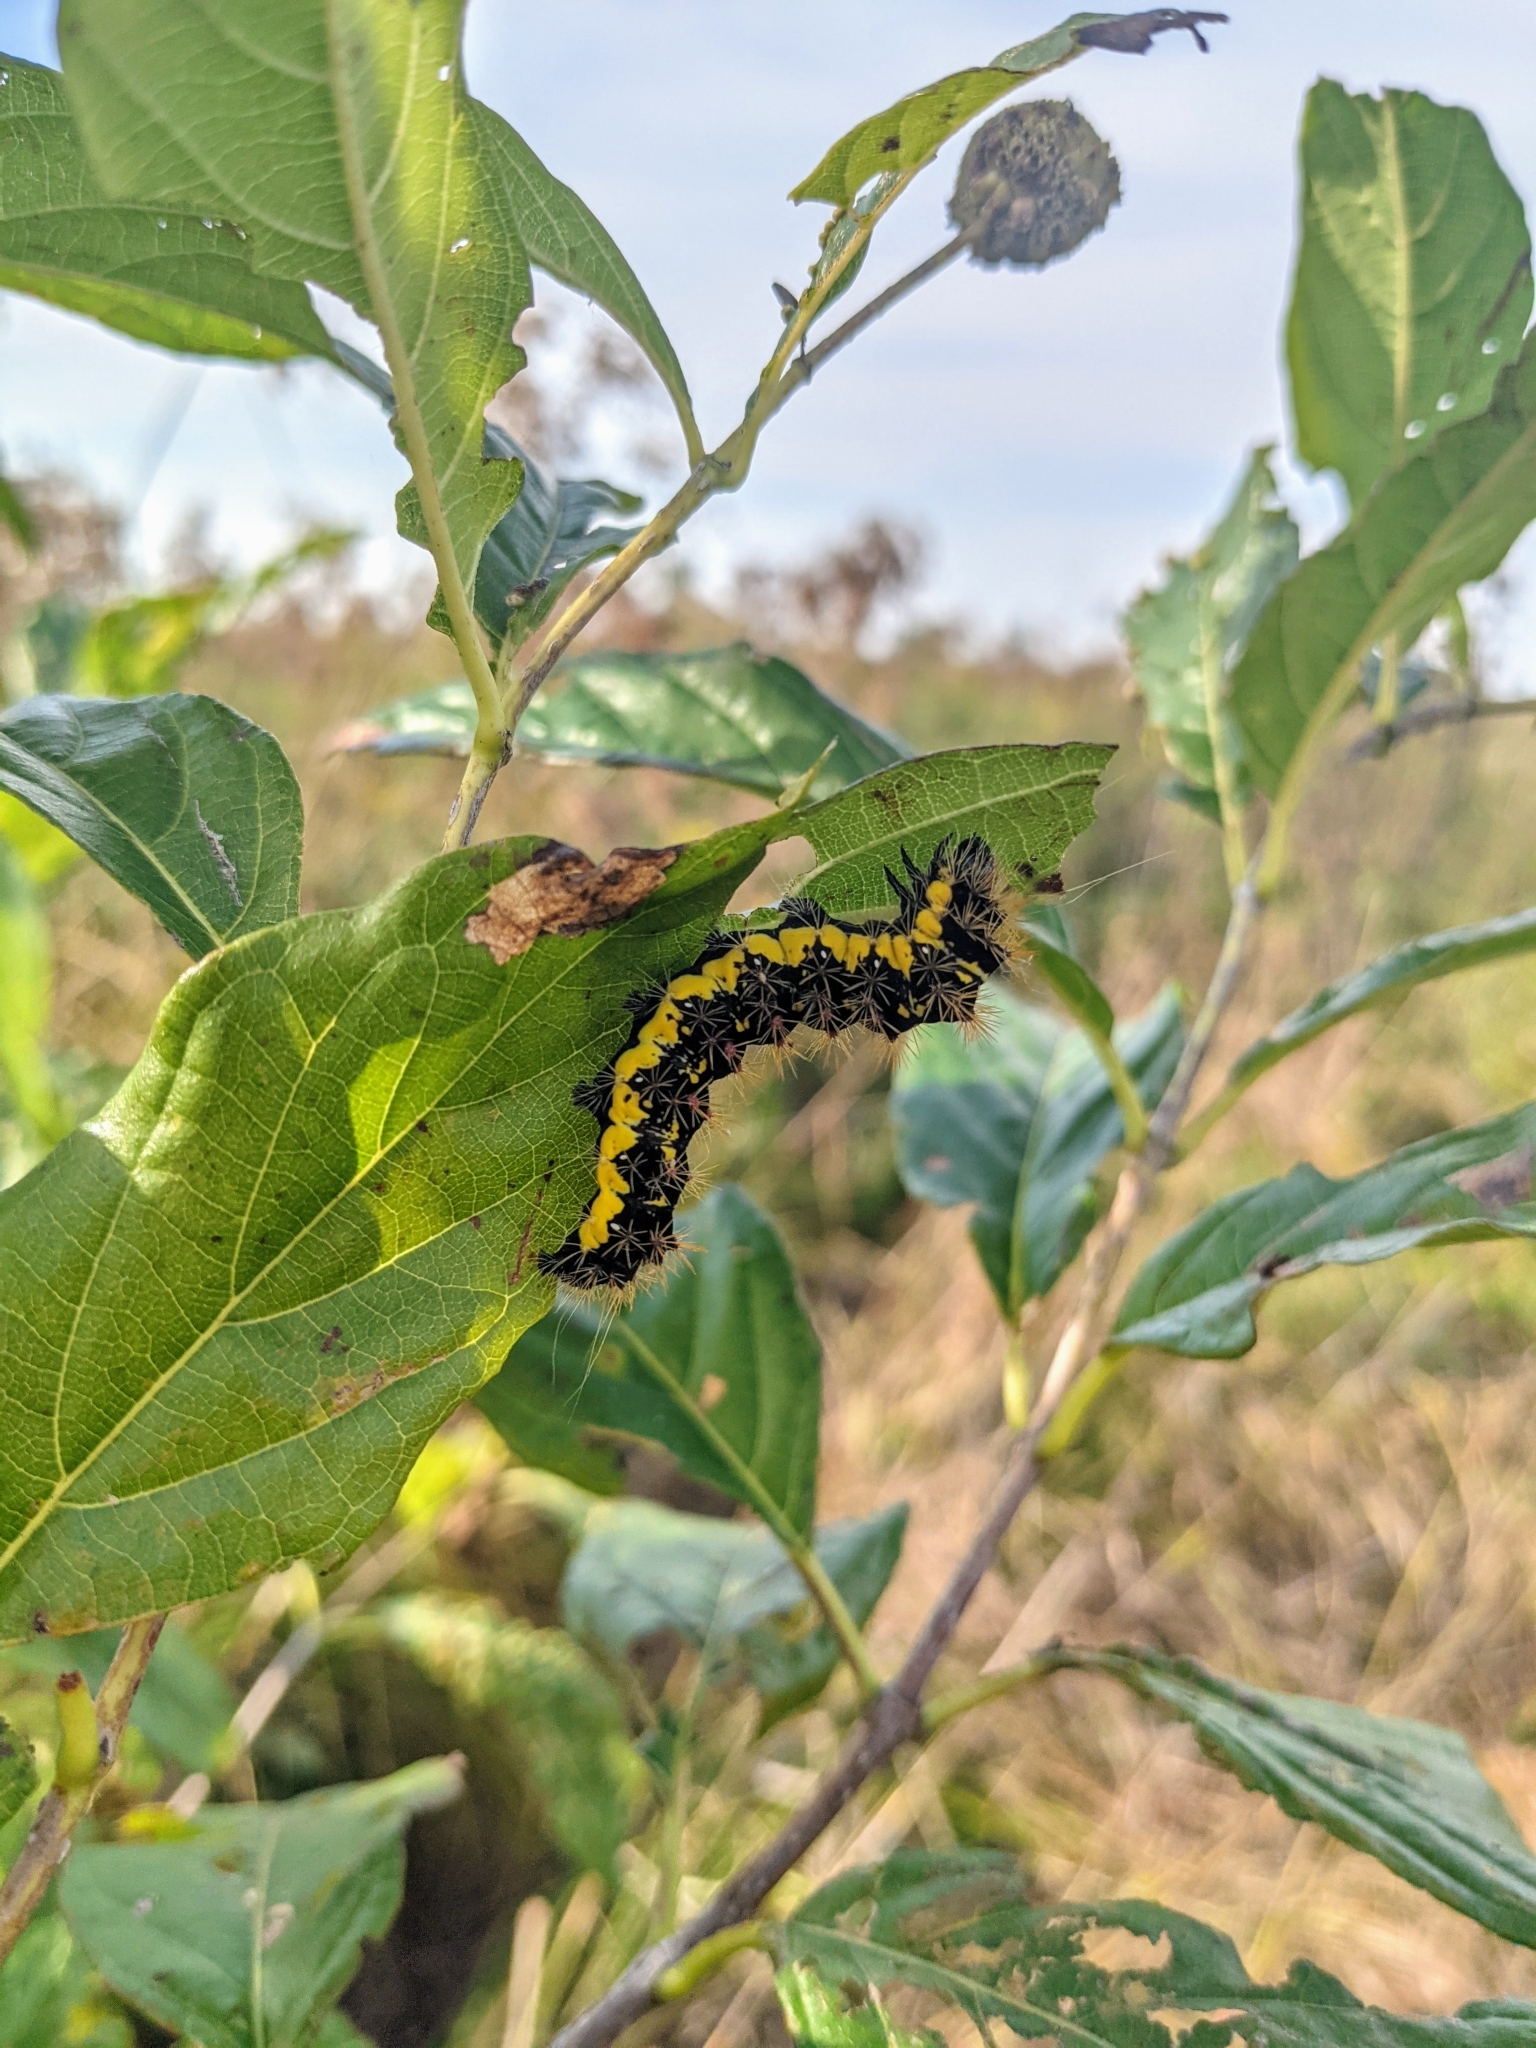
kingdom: Animalia
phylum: Arthropoda
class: Insecta
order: Lepidoptera
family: Noctuidae
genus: Acronicta
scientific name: Acronicta oblinita
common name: Smeared dagger
